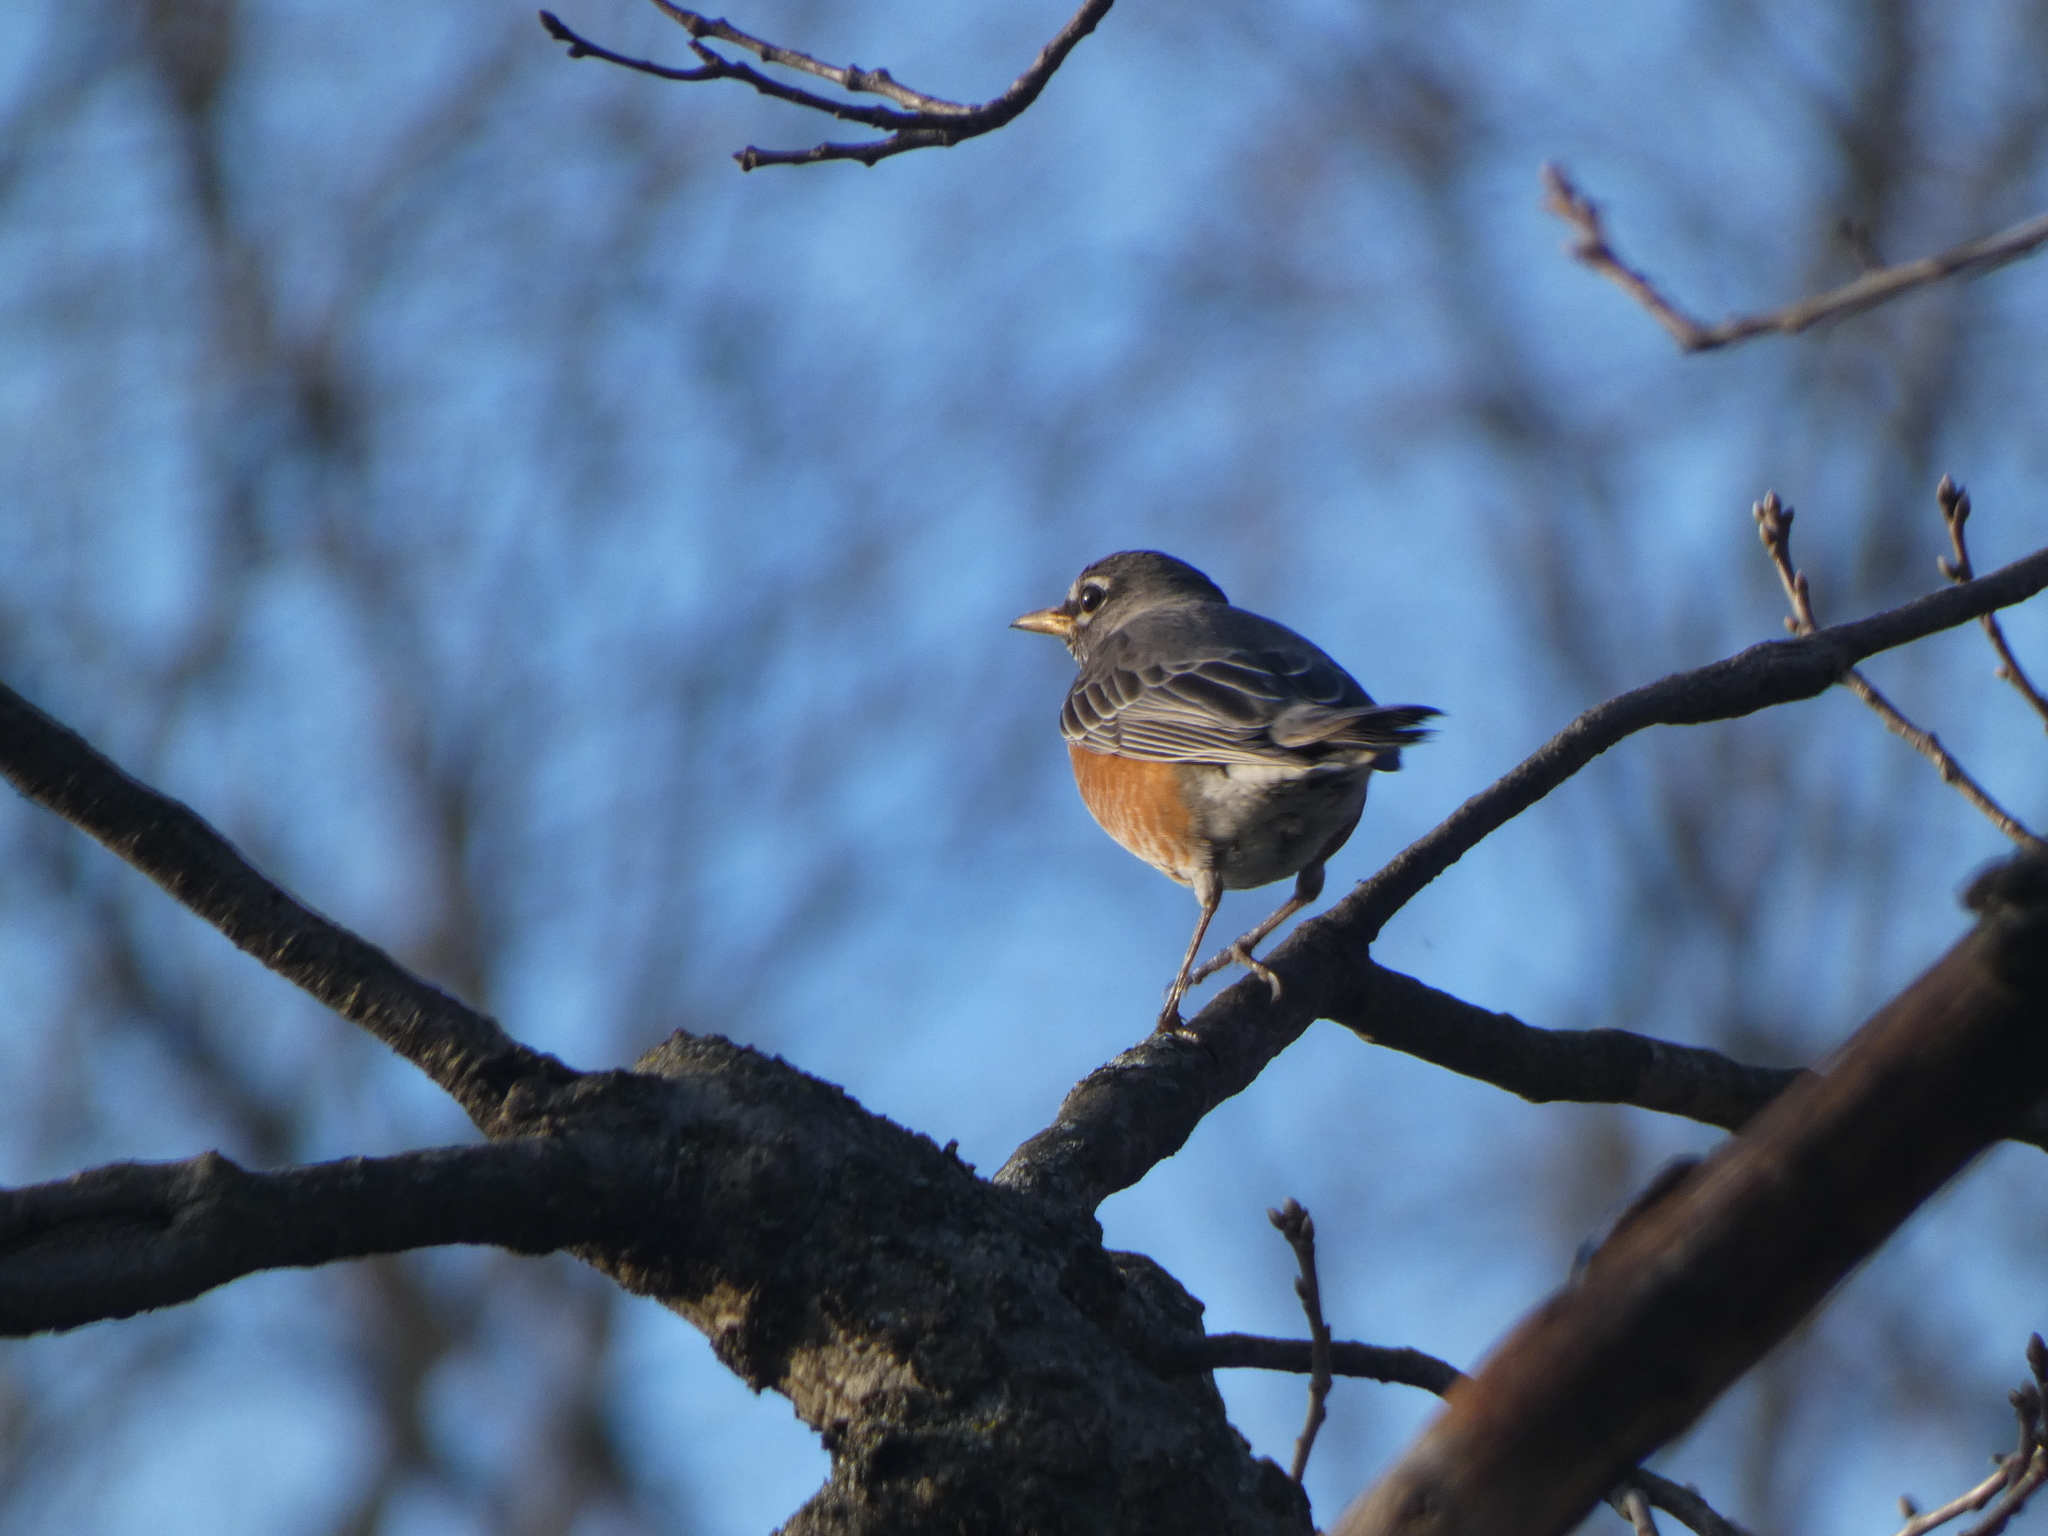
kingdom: Animalia
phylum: Chordata
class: Aves
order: Passeriformes
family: Turdidae
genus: Turdus
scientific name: Turdus migratorius
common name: American robin
